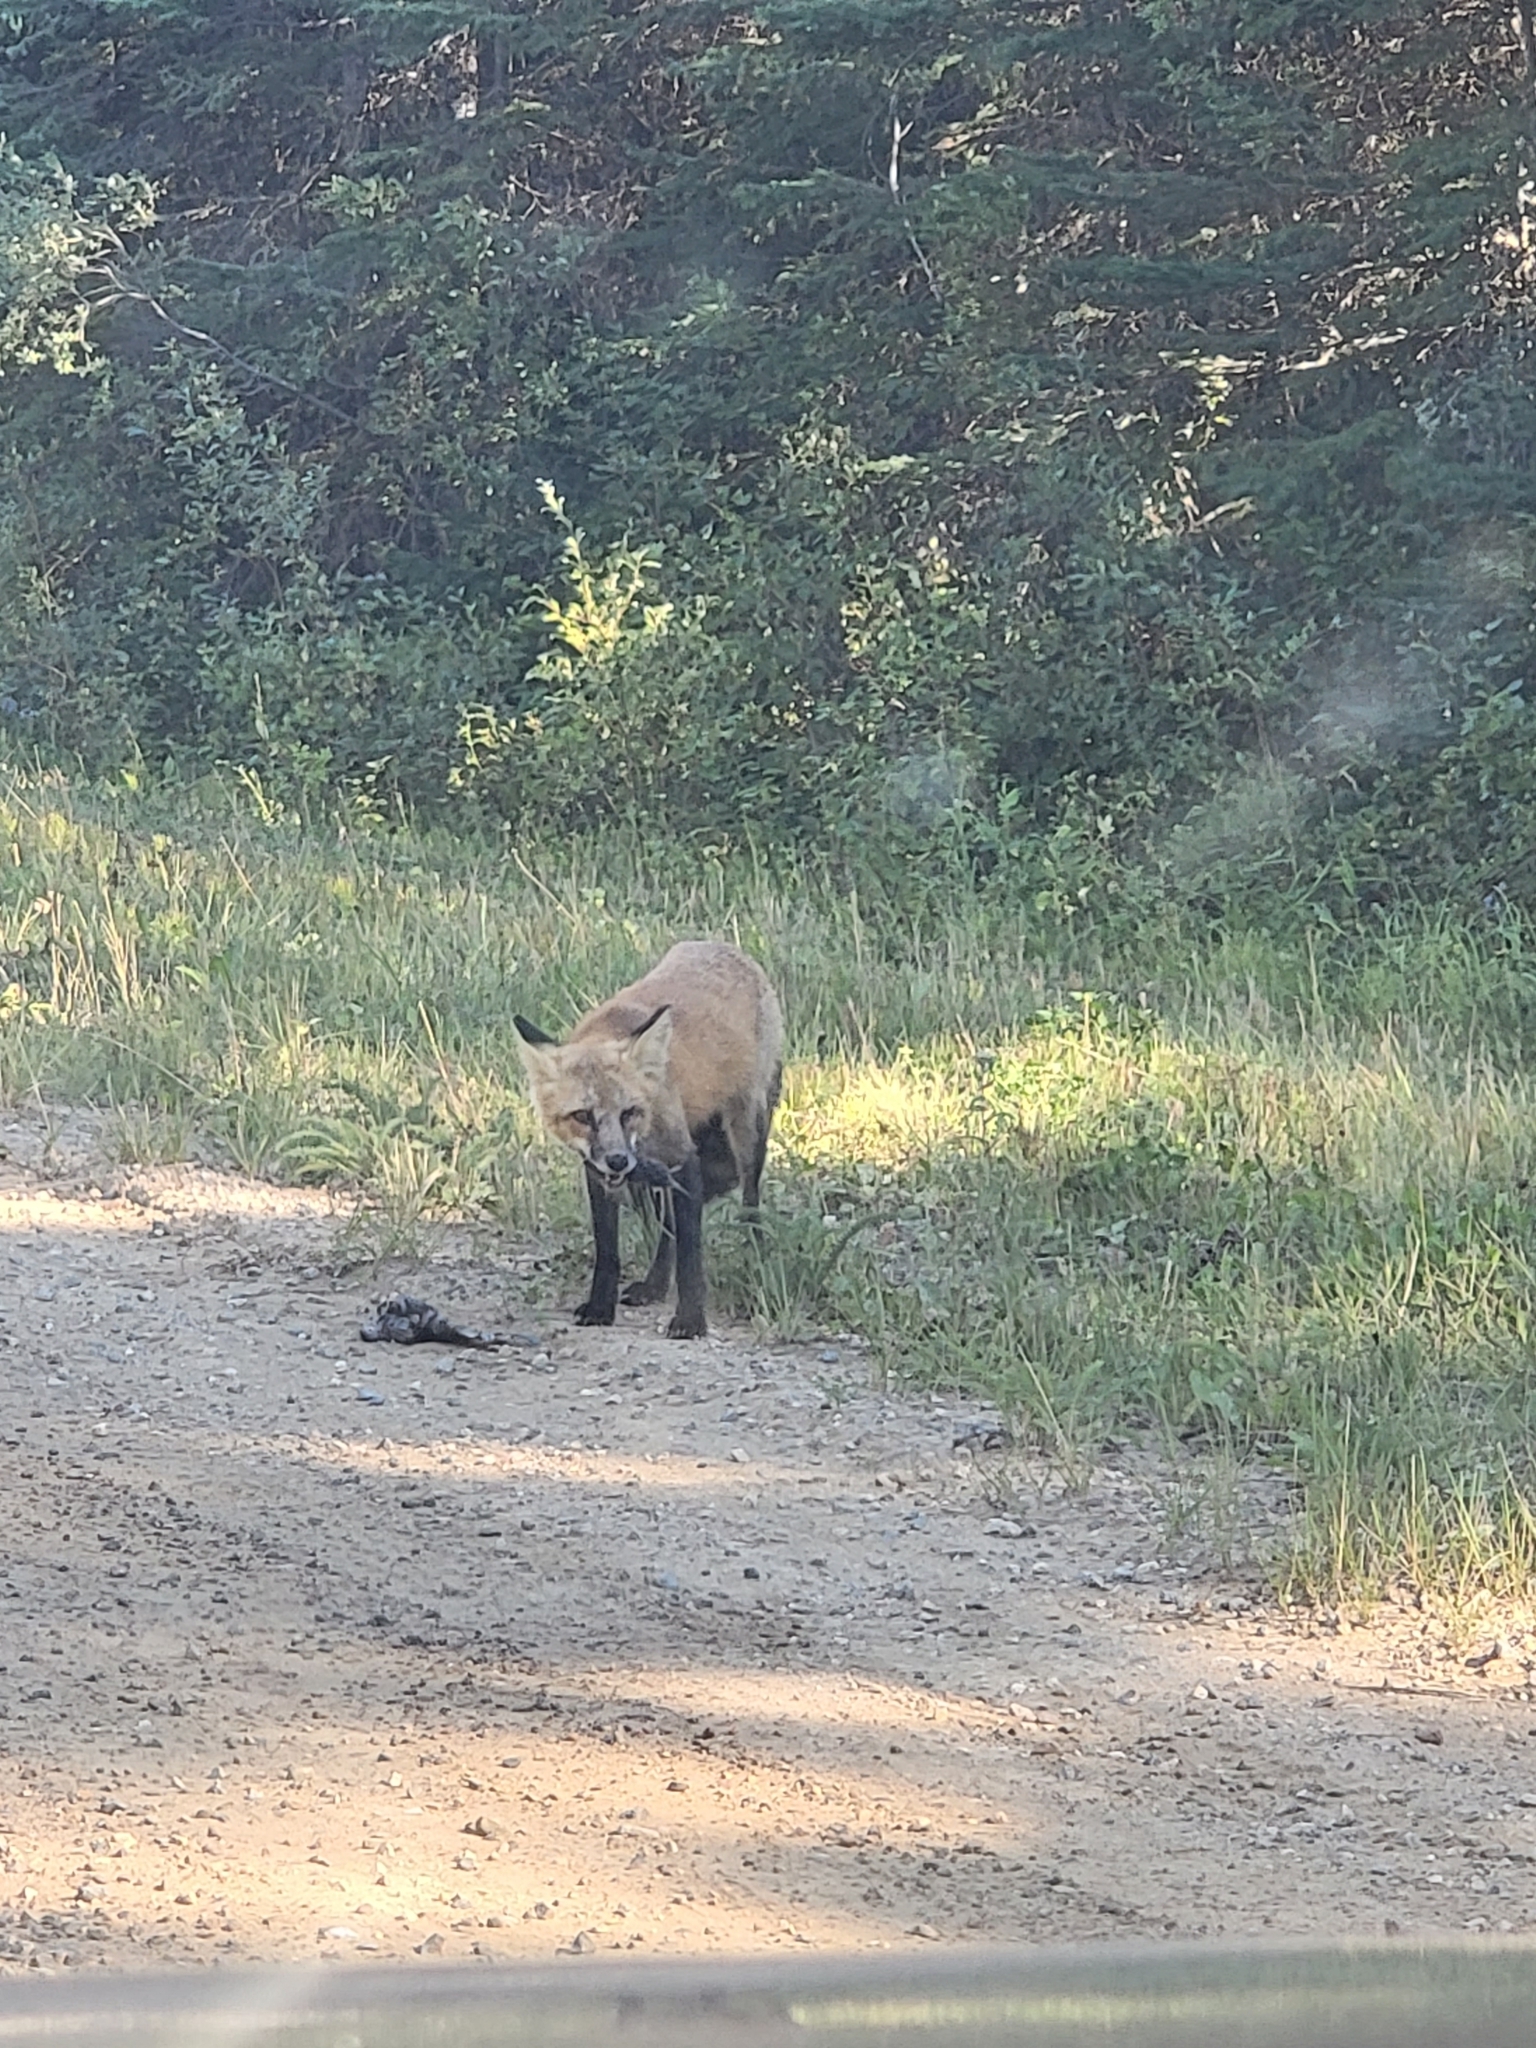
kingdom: Animalia
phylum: Chordata
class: Mammalia
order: Carnivora
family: Canidae
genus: Vulpes
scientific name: Vulpes vulpes
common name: Red fox
